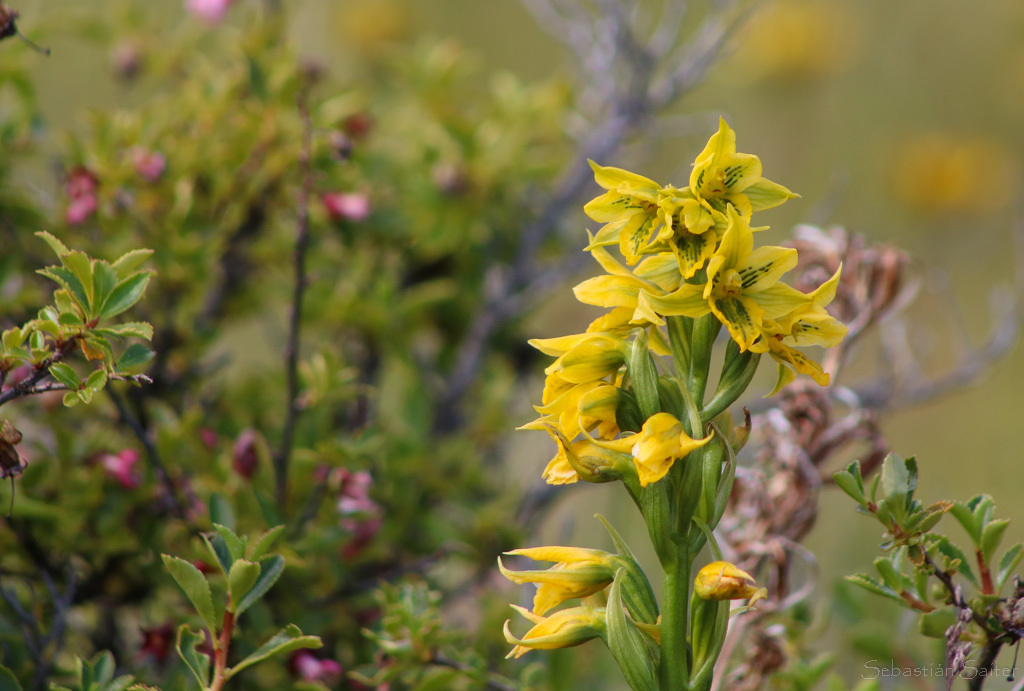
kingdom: Plantae
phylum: Tracheophyta
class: Liliopsida
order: Asparagales
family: Orchidaceae
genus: Gavilea
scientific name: Gavilea gladysiae
